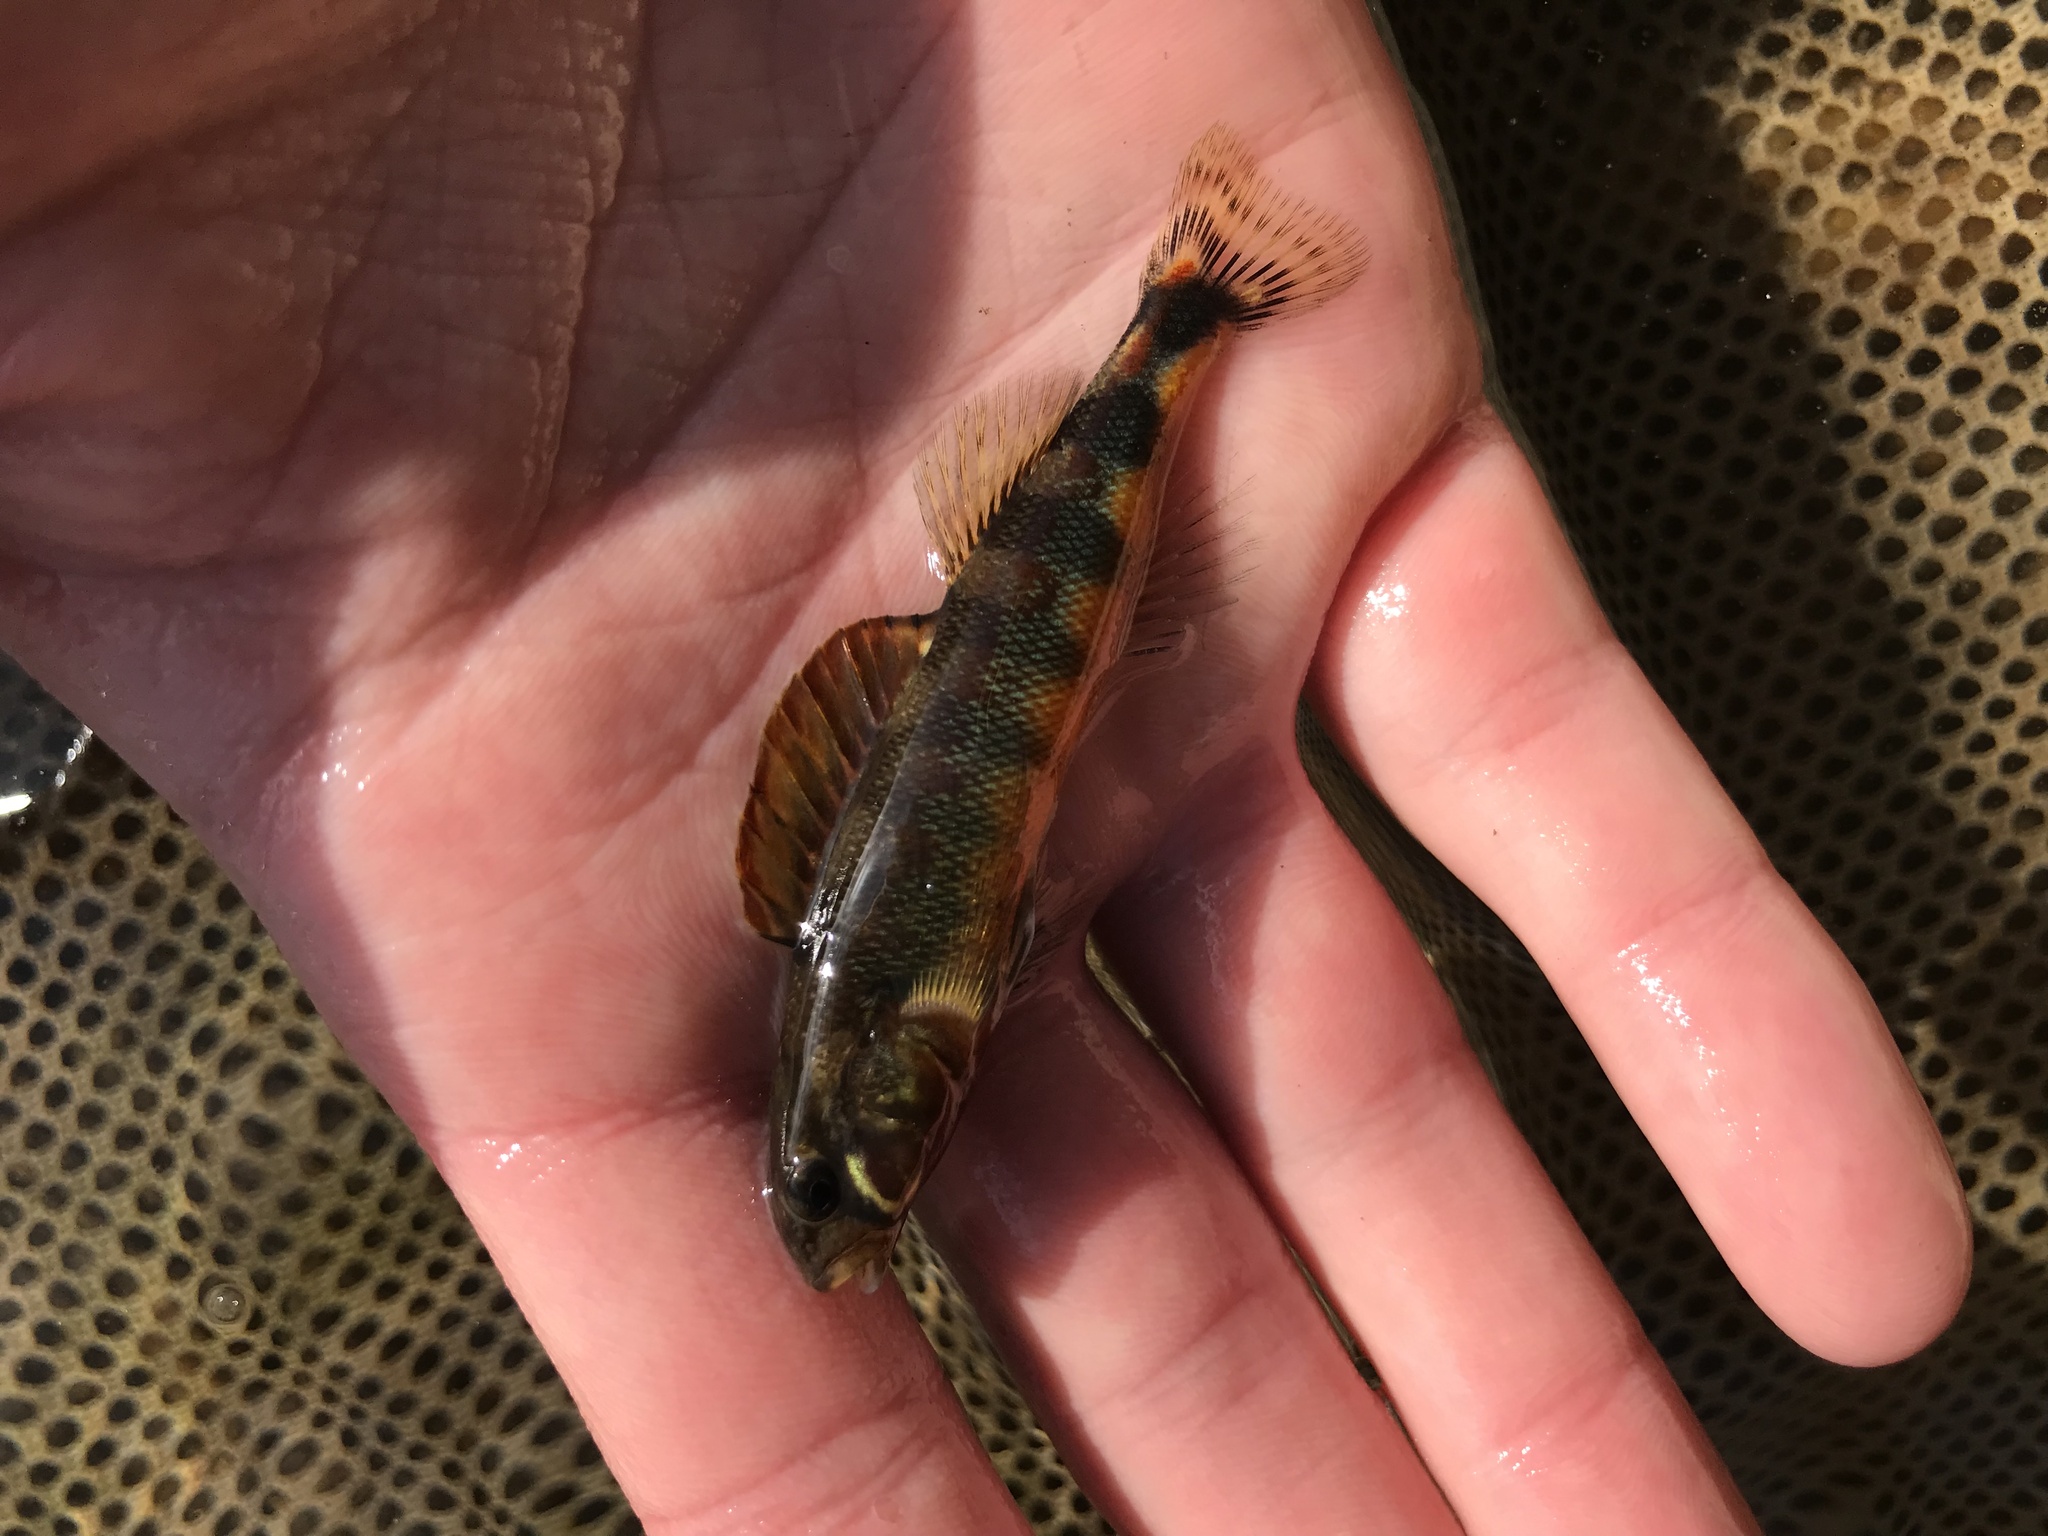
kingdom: Animalia
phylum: Chordata
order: Perciformes
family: Percidae
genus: Percina
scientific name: Percina evides
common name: Gilt darter
